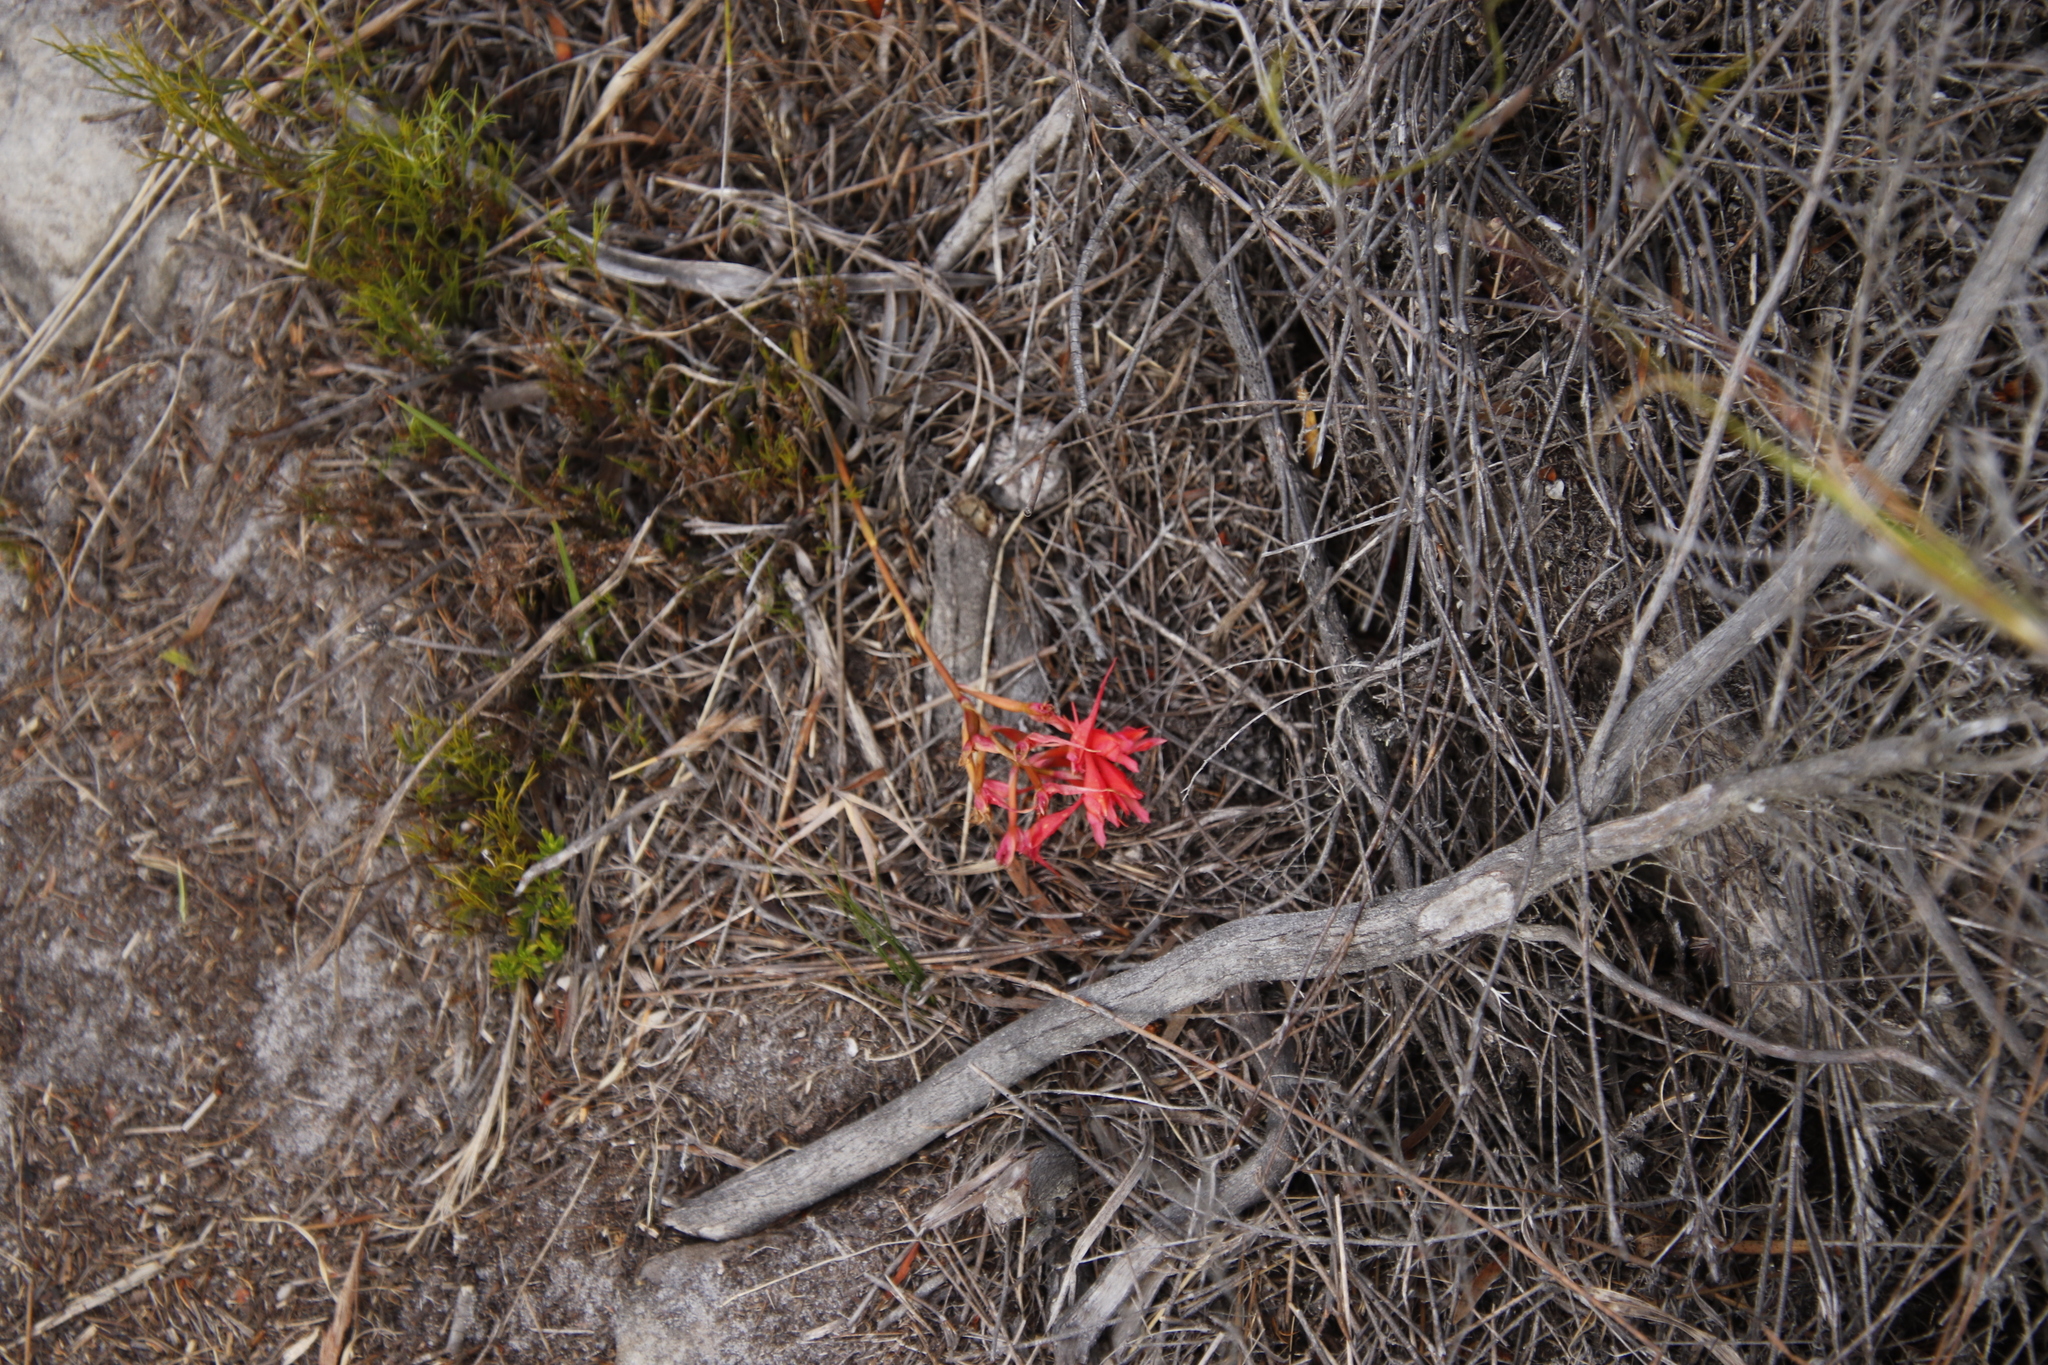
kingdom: Plantae
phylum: Tracheophyta
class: Liliopsida
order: Asparagales
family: Orchidaceae
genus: Disa
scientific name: Disa ferruginea
